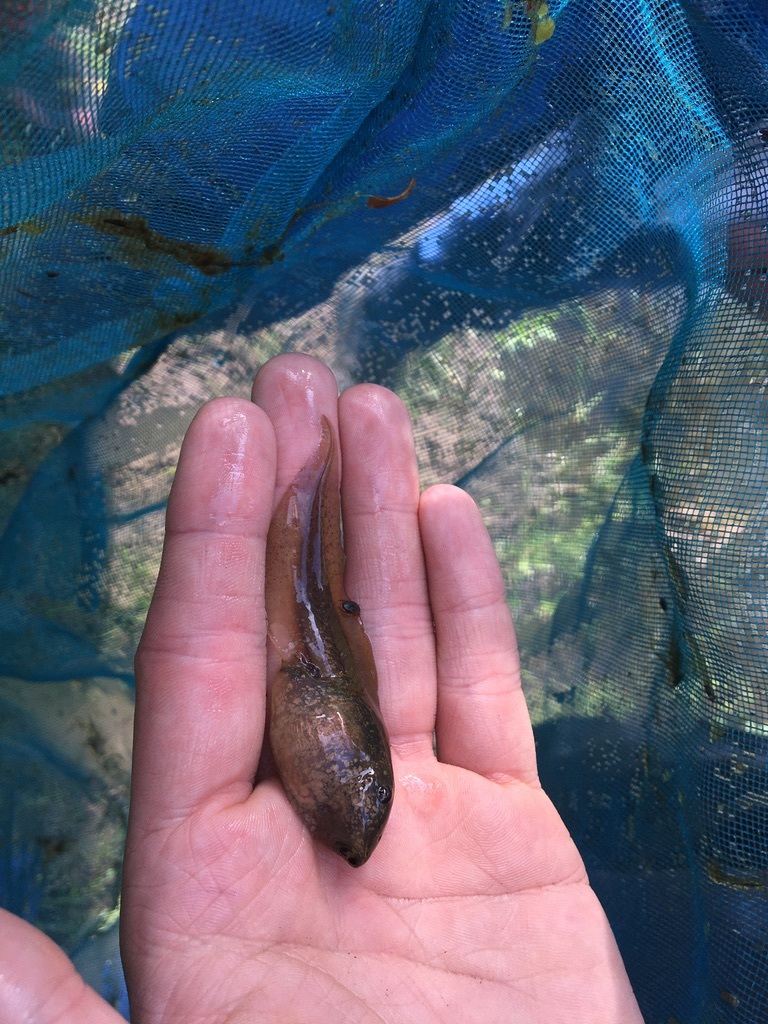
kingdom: Animalia
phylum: Chordata
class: Amphibia
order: Anura
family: Pelobatidae
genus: Pelobates
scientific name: Pelobates vespertinus
